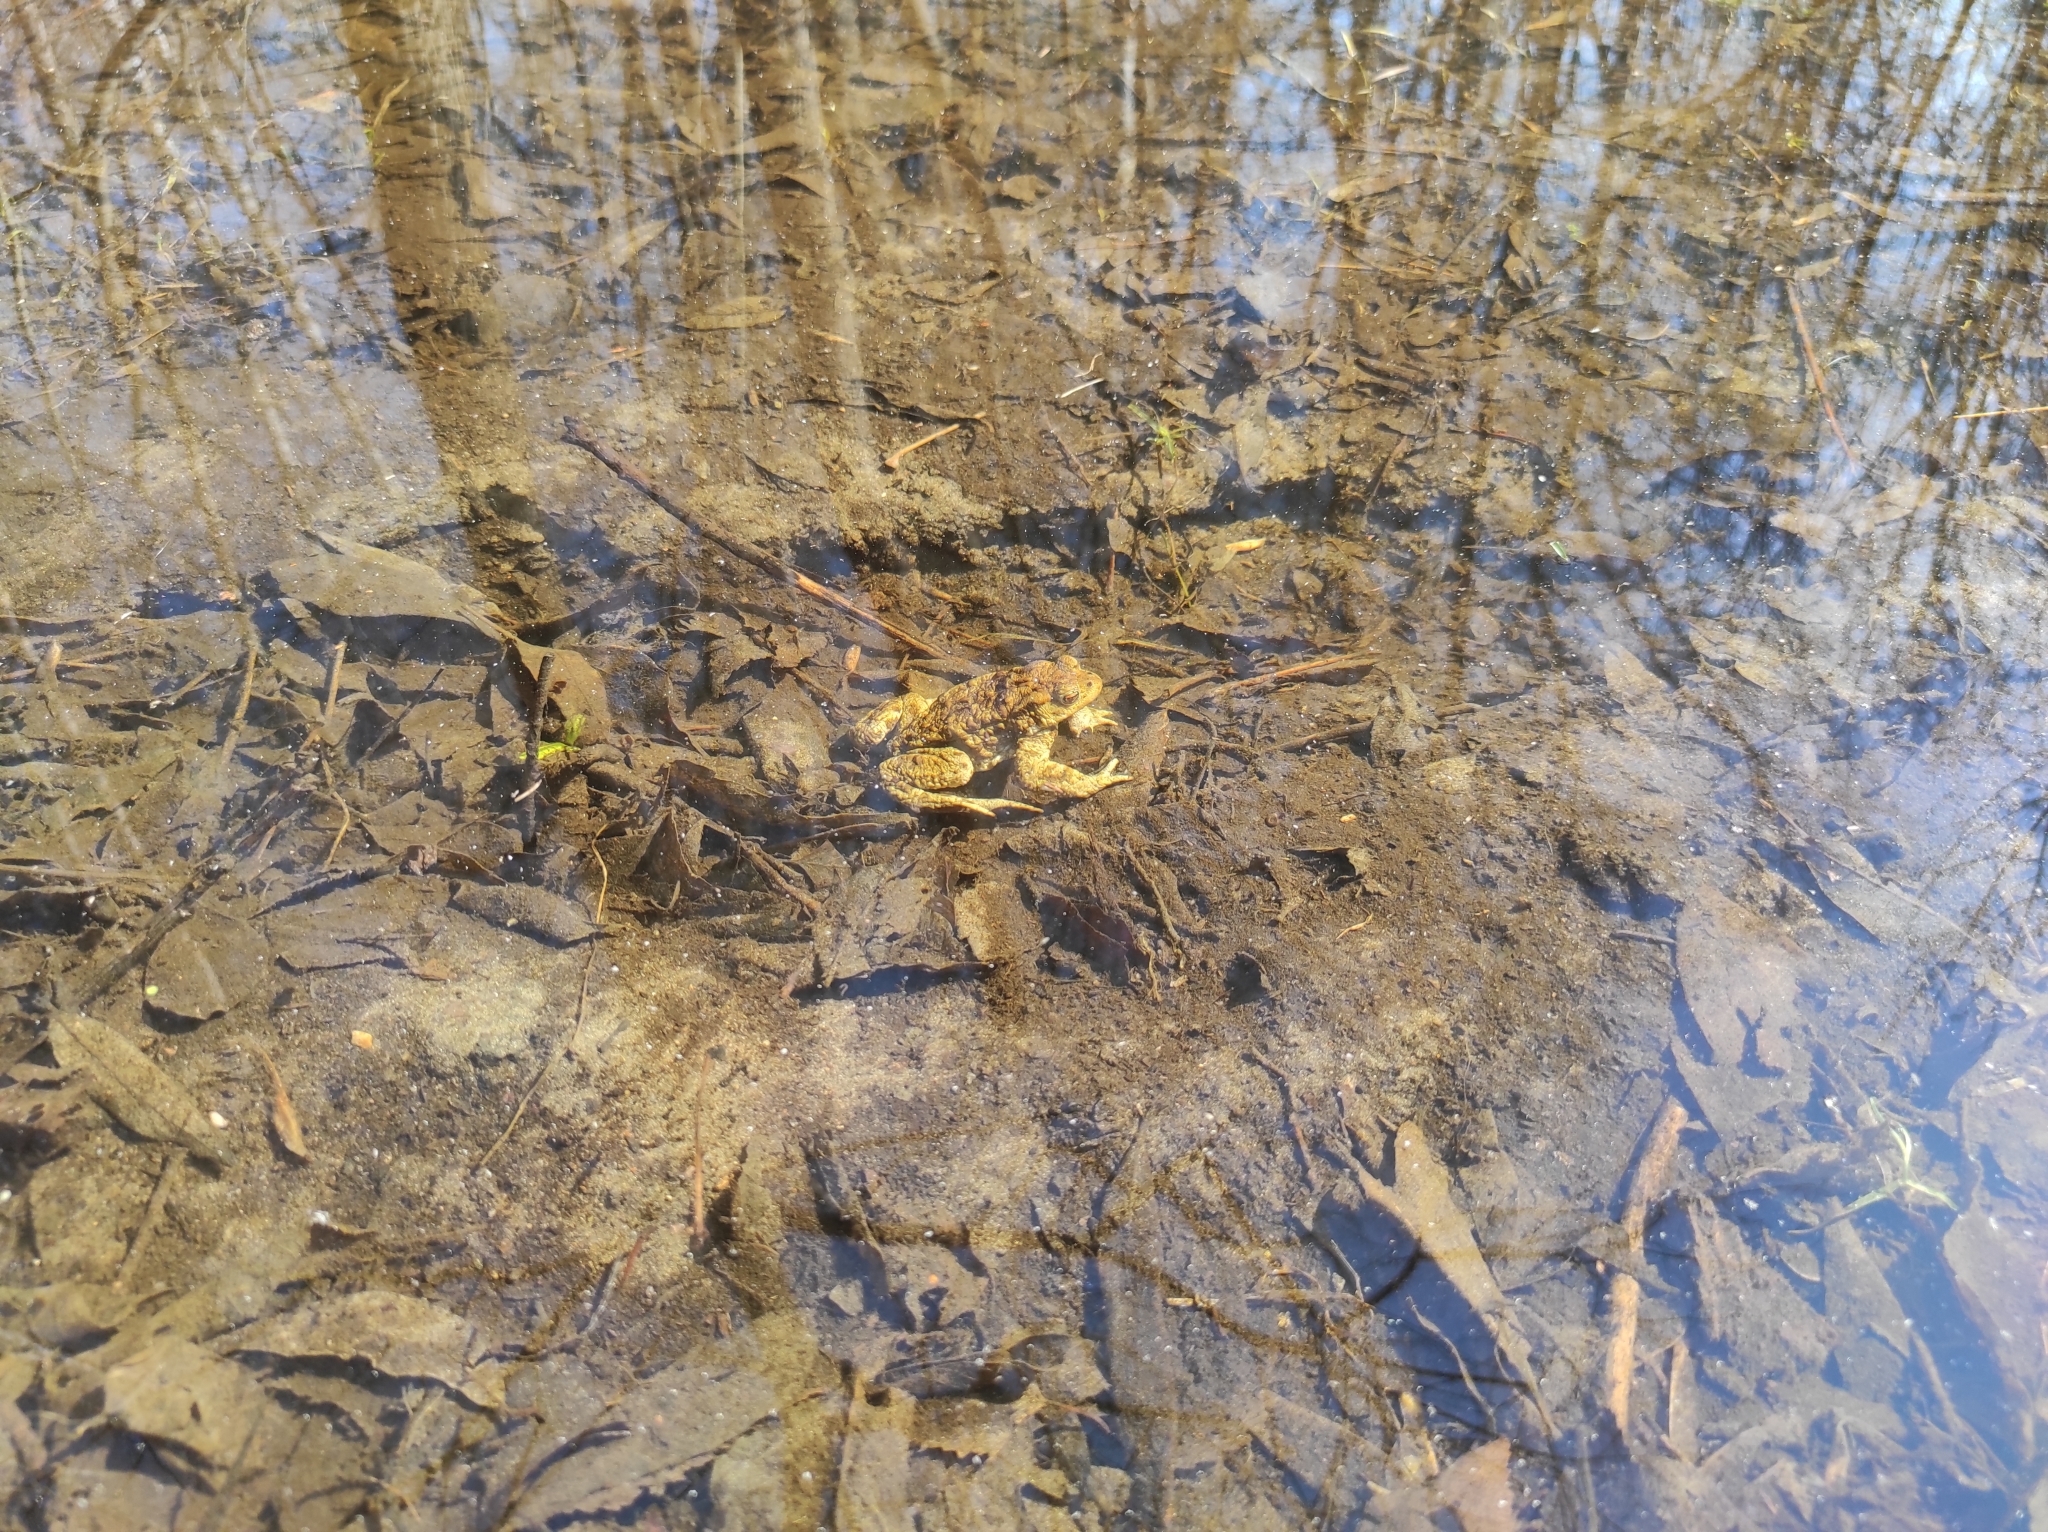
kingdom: Animalia
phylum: Chordata
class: Amphibia
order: Anura
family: Bufonidae
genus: Bufo
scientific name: Bufo bufo
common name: Common toad
